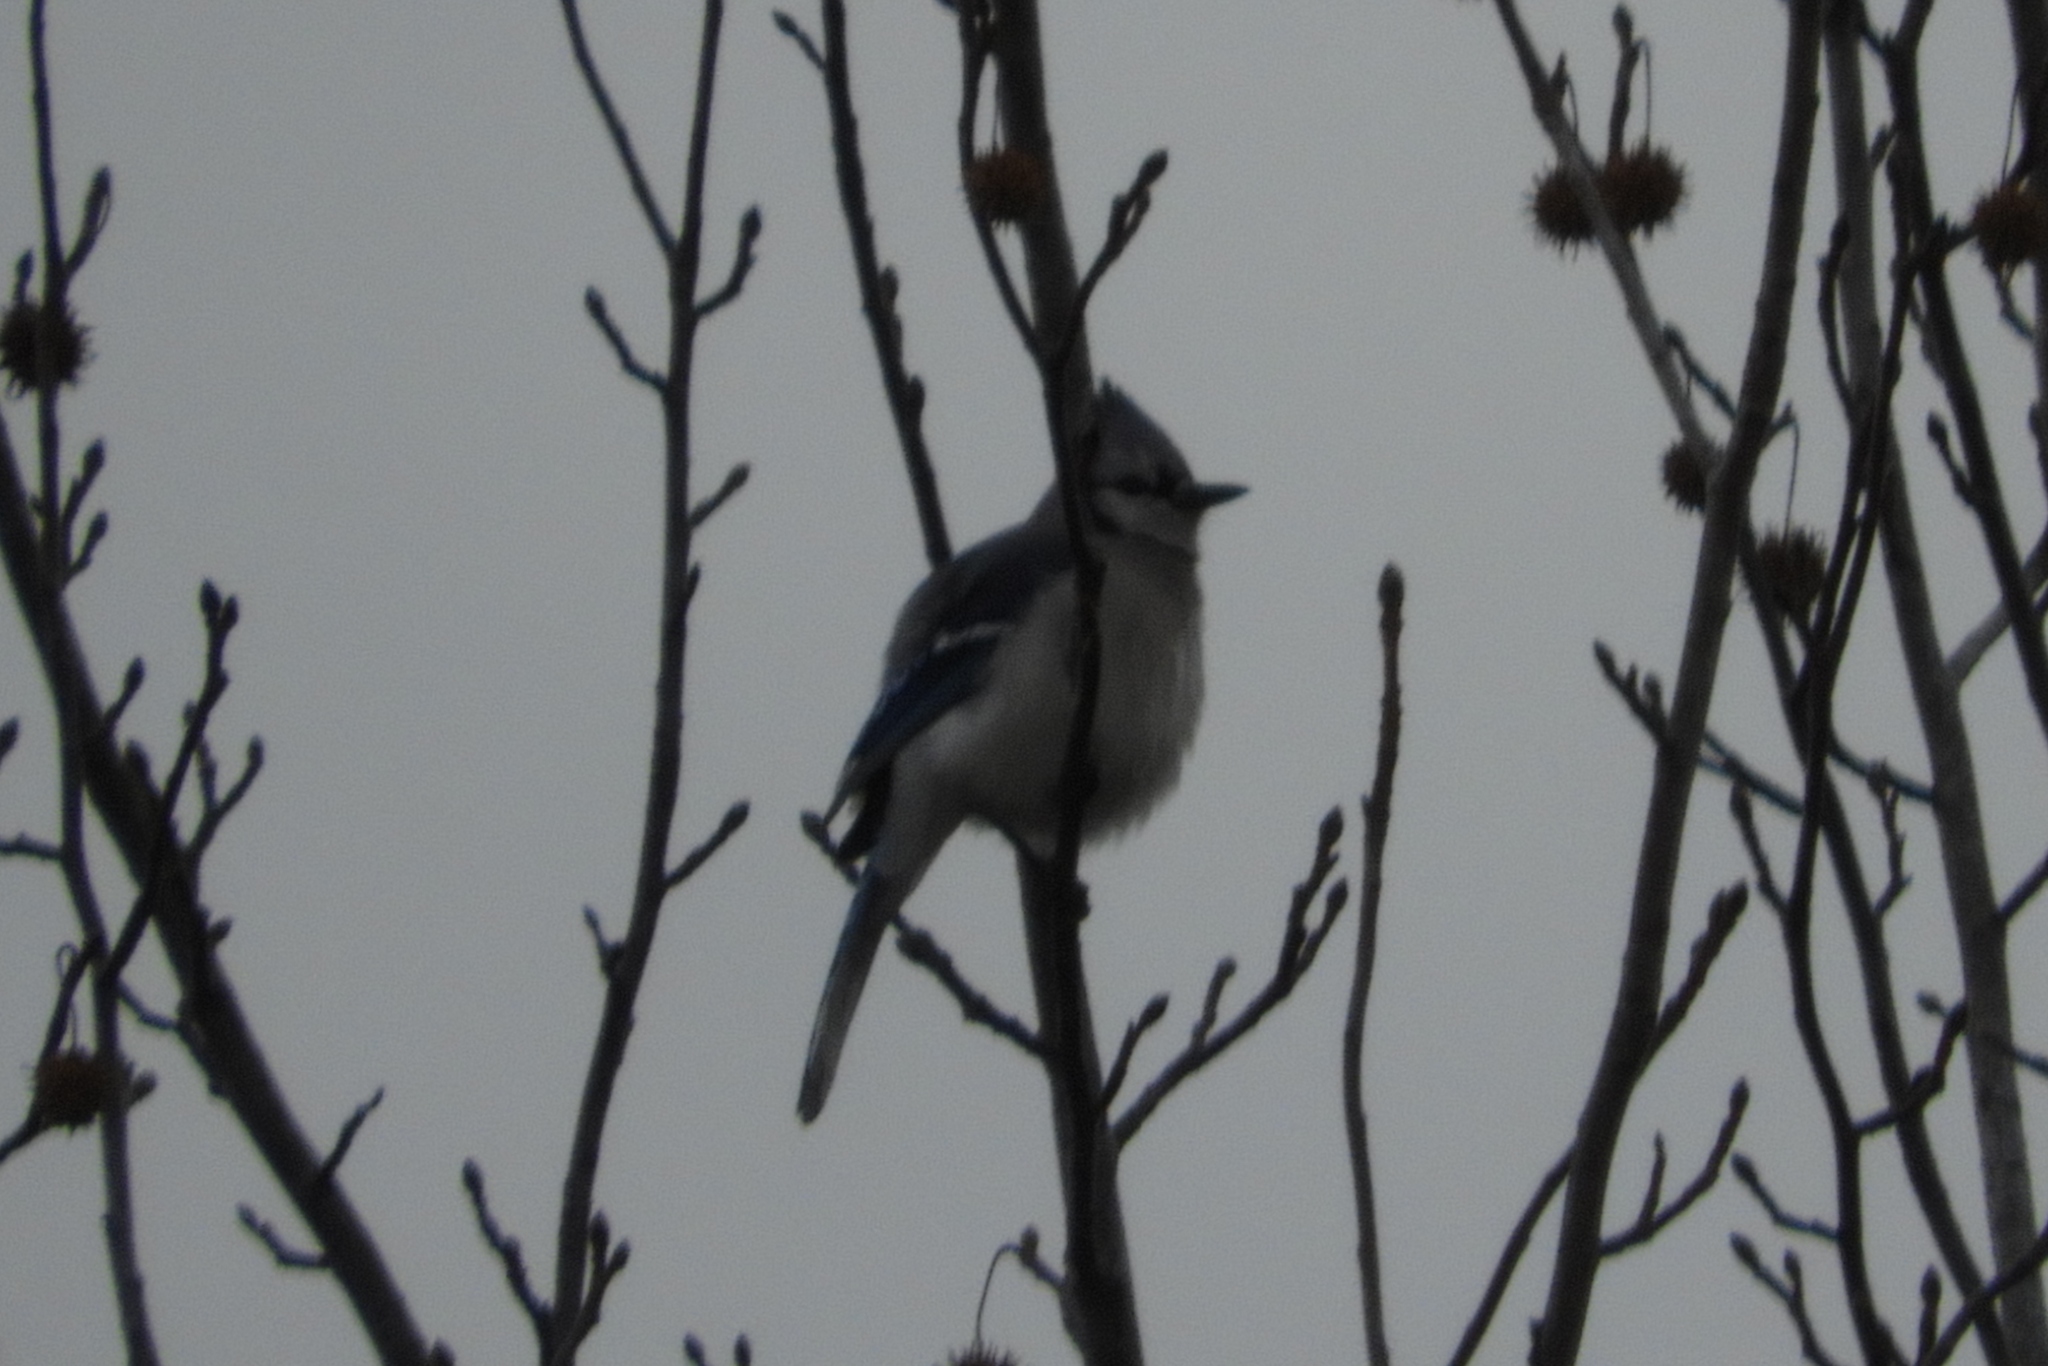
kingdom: Animalia
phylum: Chordata
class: Aves
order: Passeriformes
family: Corvidae
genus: Cyanocitta
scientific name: Cyanocitta cristata
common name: Blue jay
